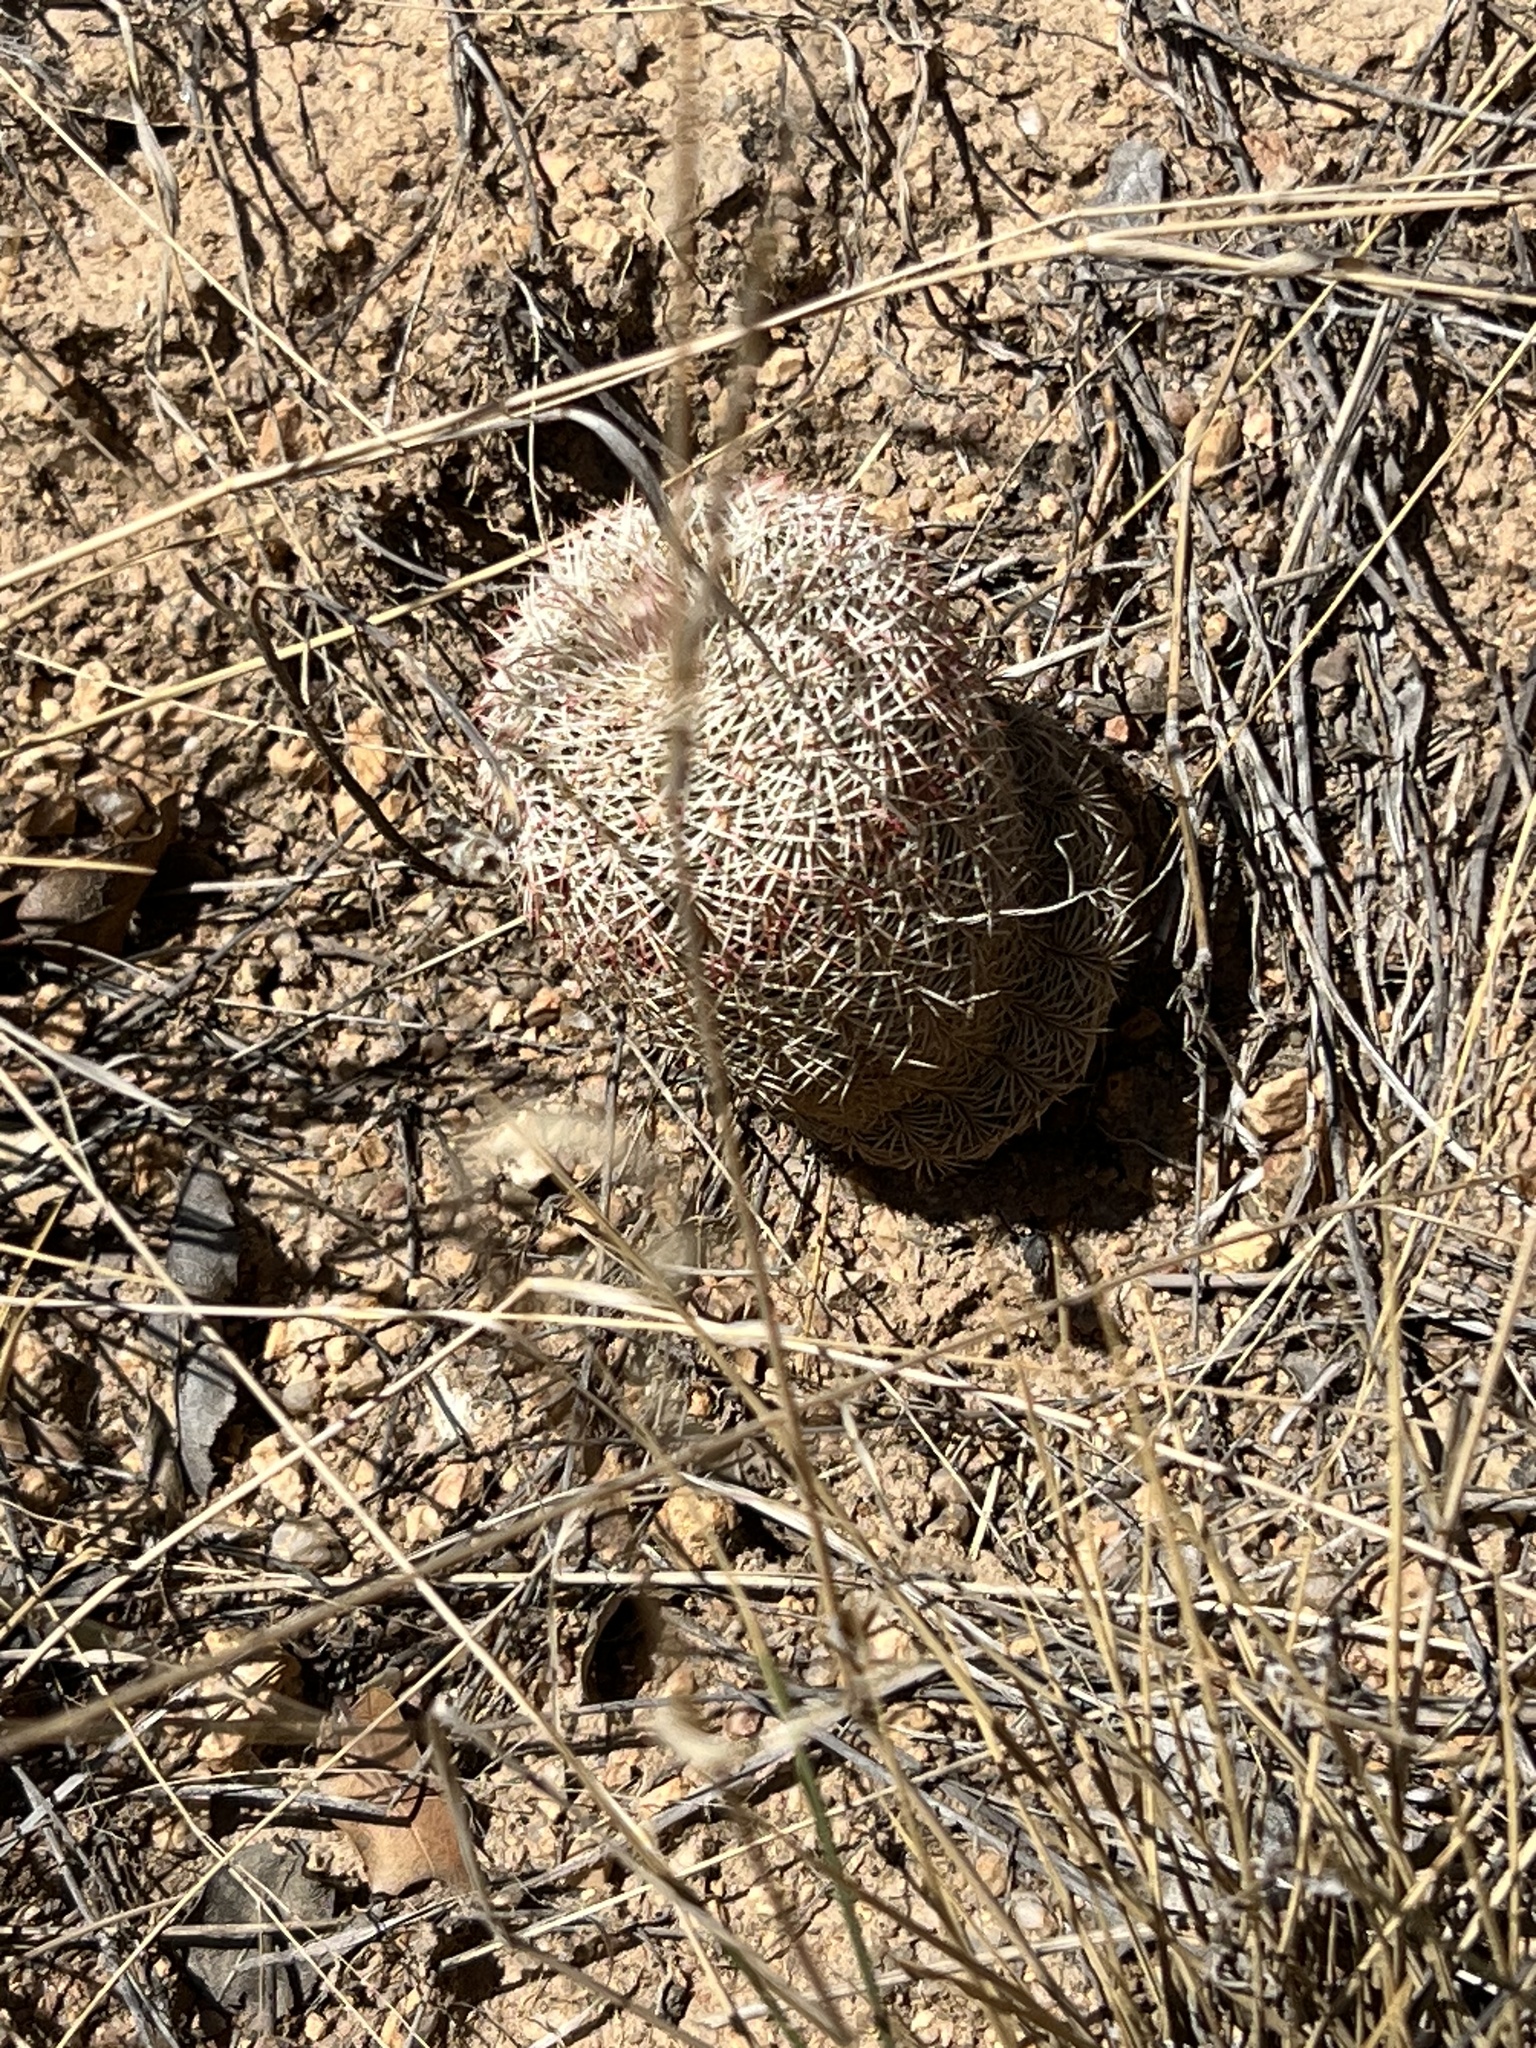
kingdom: Plantae
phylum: Tracheophyta
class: Magnoliopsida
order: Caryophyllales
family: Cactaceae
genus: Echinocereus
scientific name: Echinocereus rigidissimus
